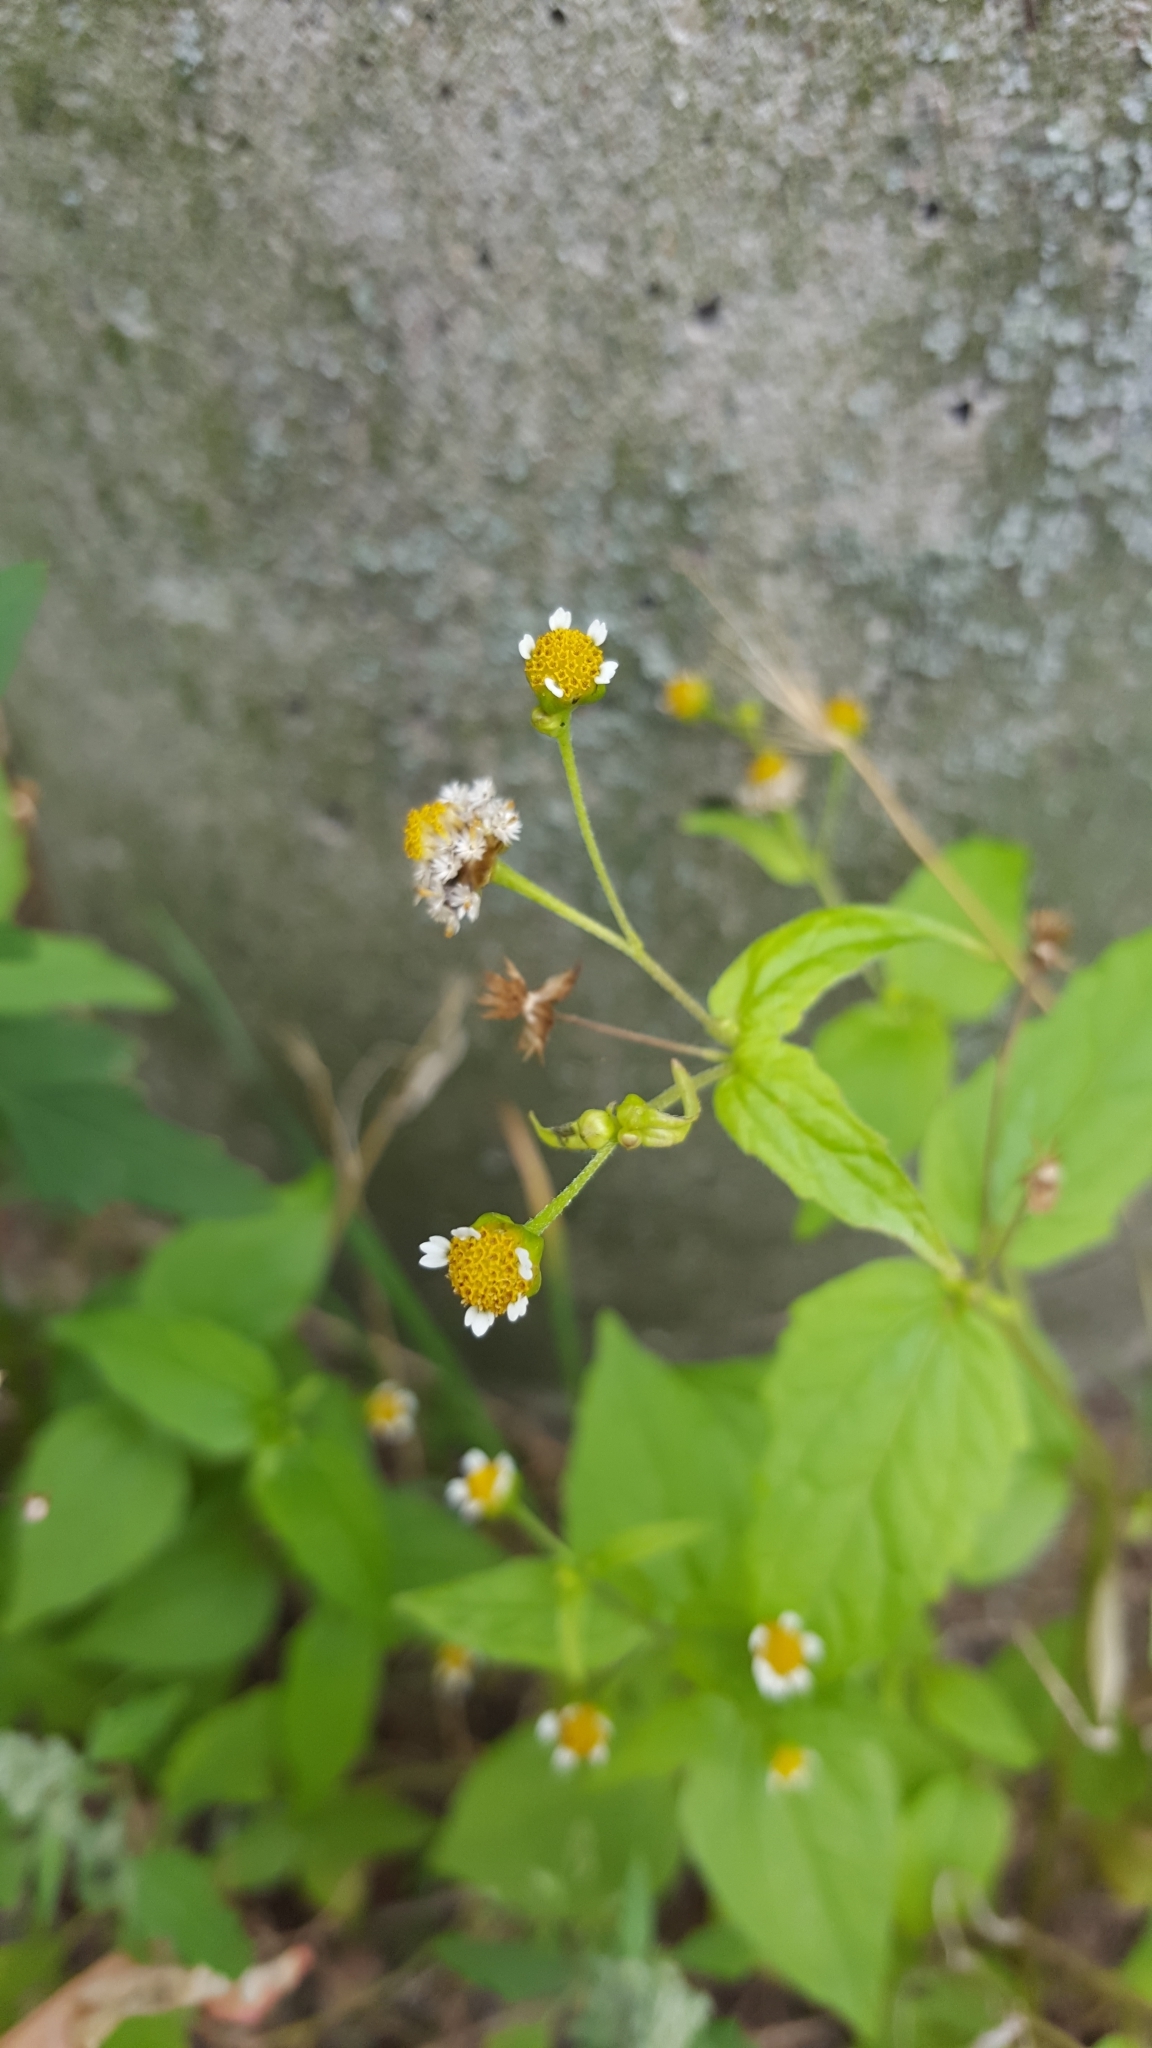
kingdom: Plantae
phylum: Tracheophyta
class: Magnoliopsida
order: Asterales
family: Asteraceae
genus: Galinsoga
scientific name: Galinsoga parviflora
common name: Gallant soldier
